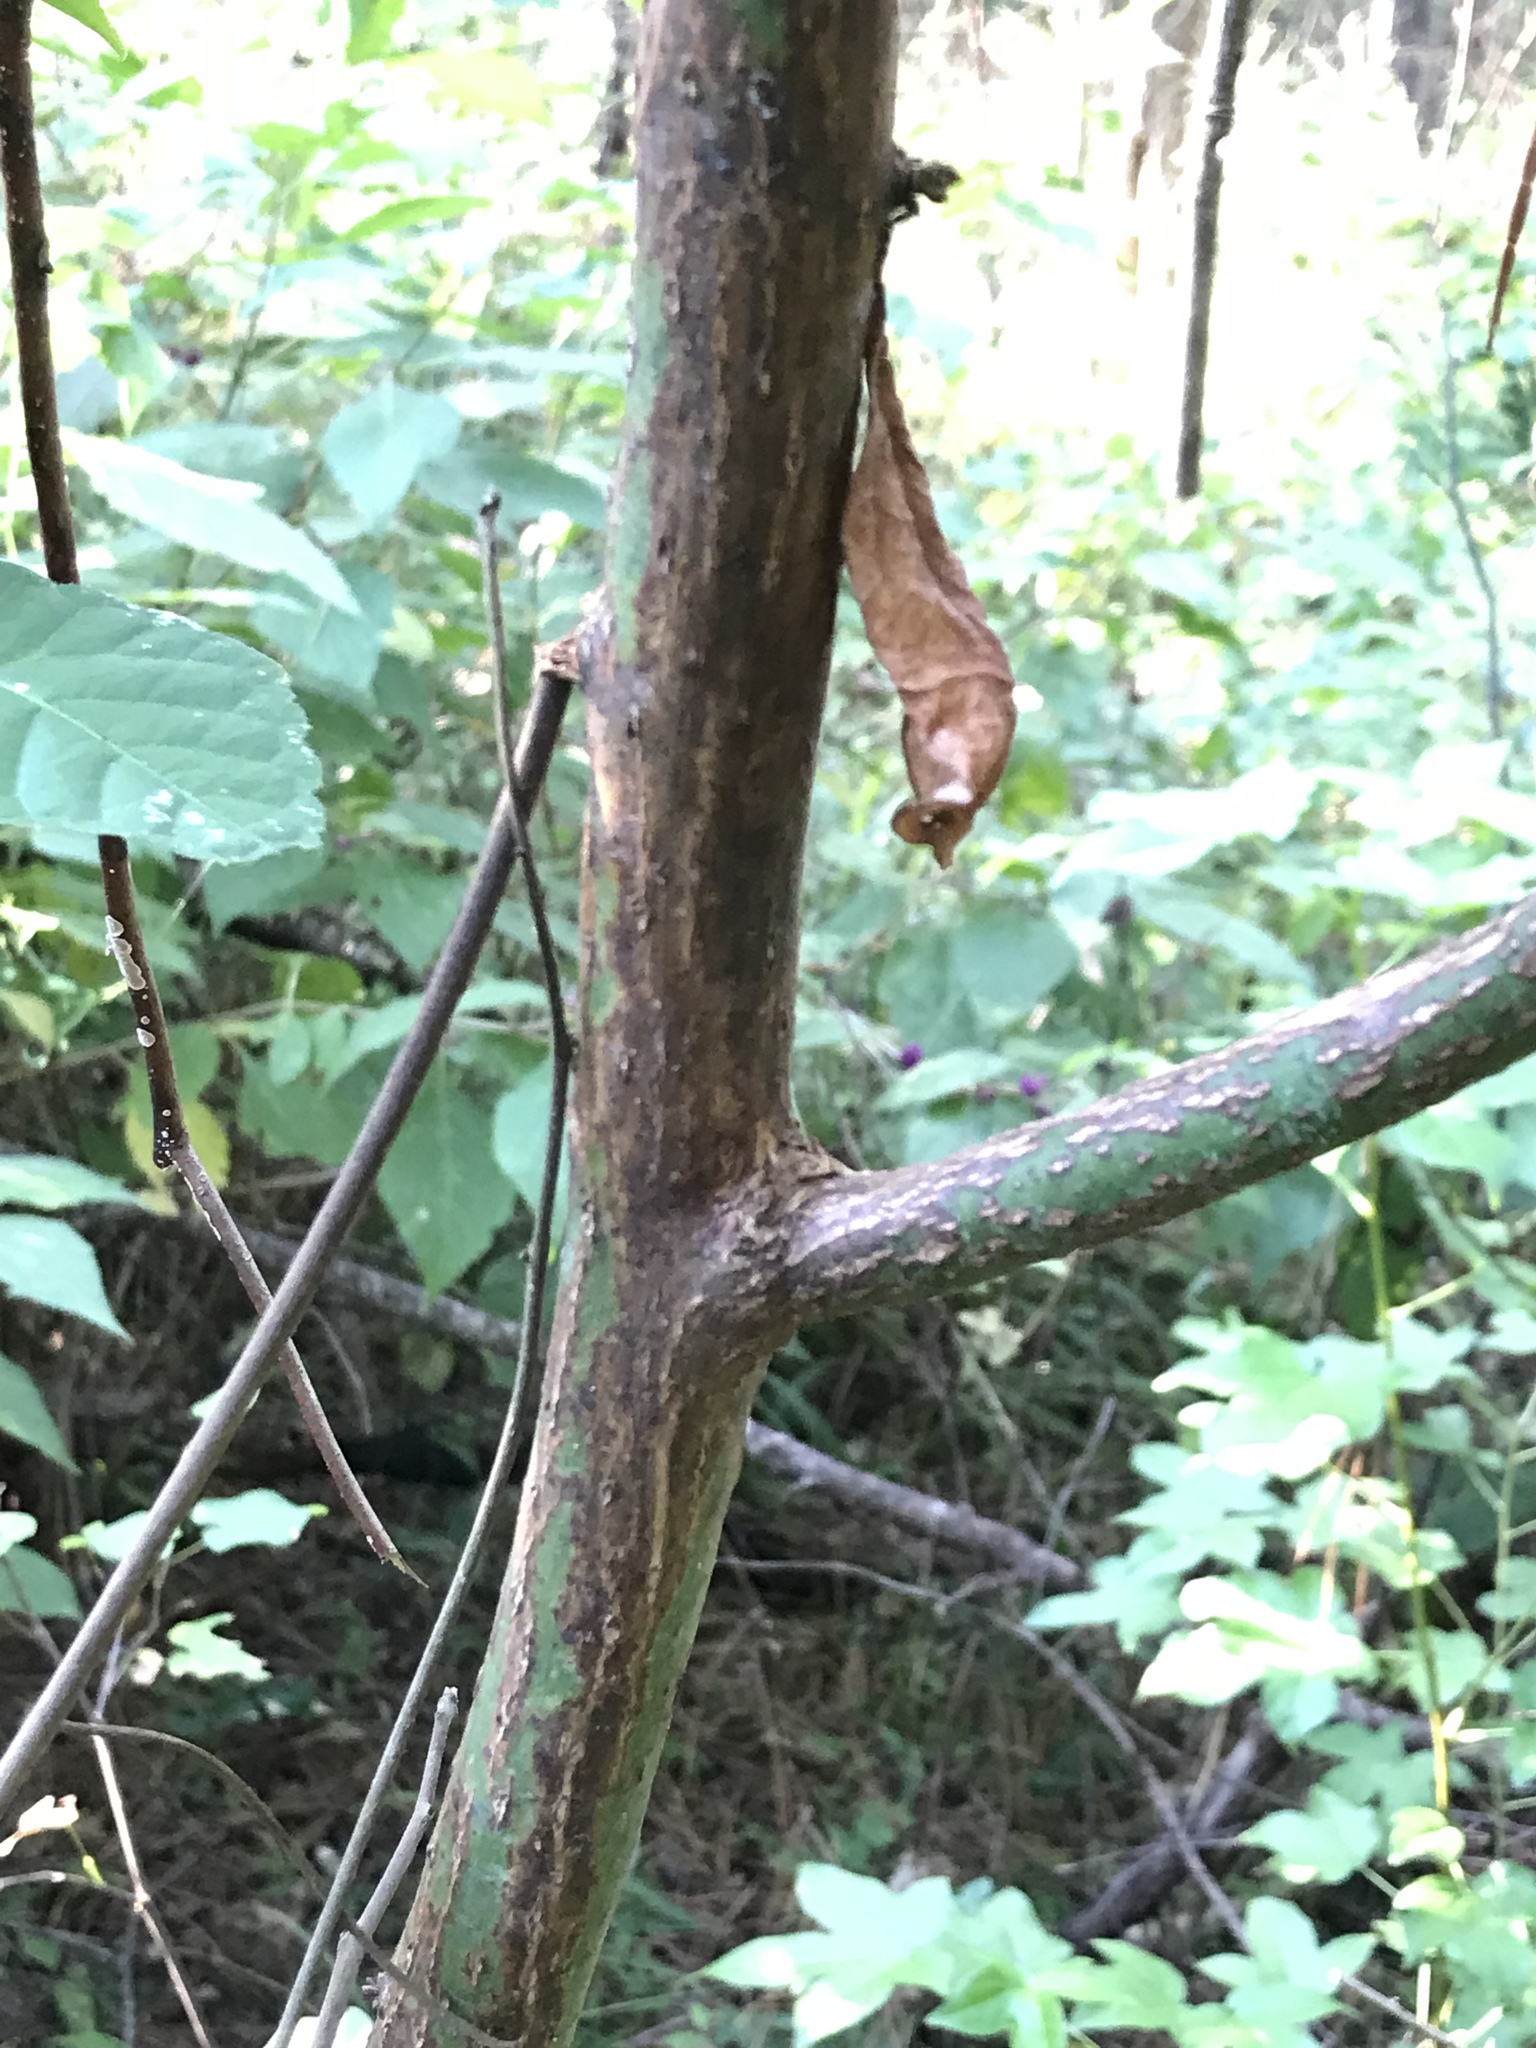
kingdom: Plantae
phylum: Tracheophyta
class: Magnoliopsida
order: Laurales
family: Lauraceae
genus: Sassafras
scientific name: Sassafras albidum
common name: Sassafras
